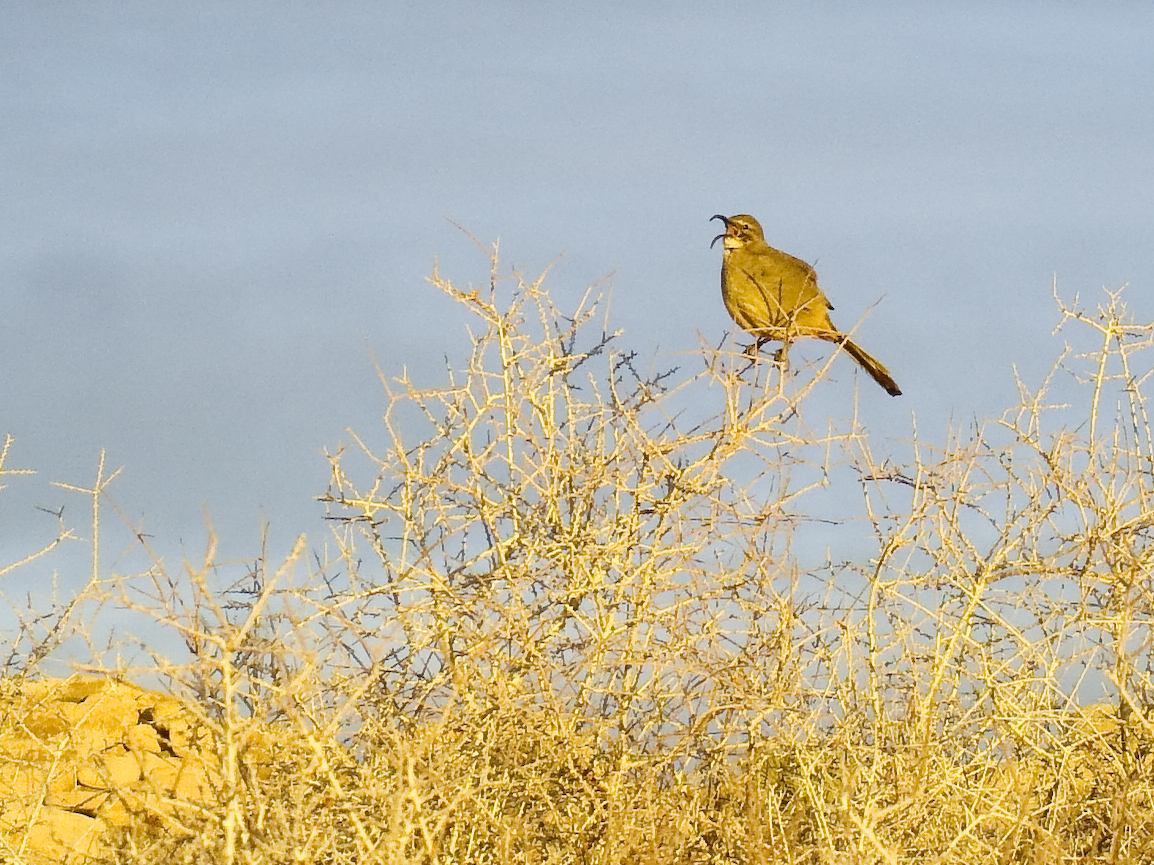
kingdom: Animalia
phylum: Chordata
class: Aves
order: Passeriformes
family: Mimidae
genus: Toxostoma
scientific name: Toxostoma redivivum
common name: California thrasher
